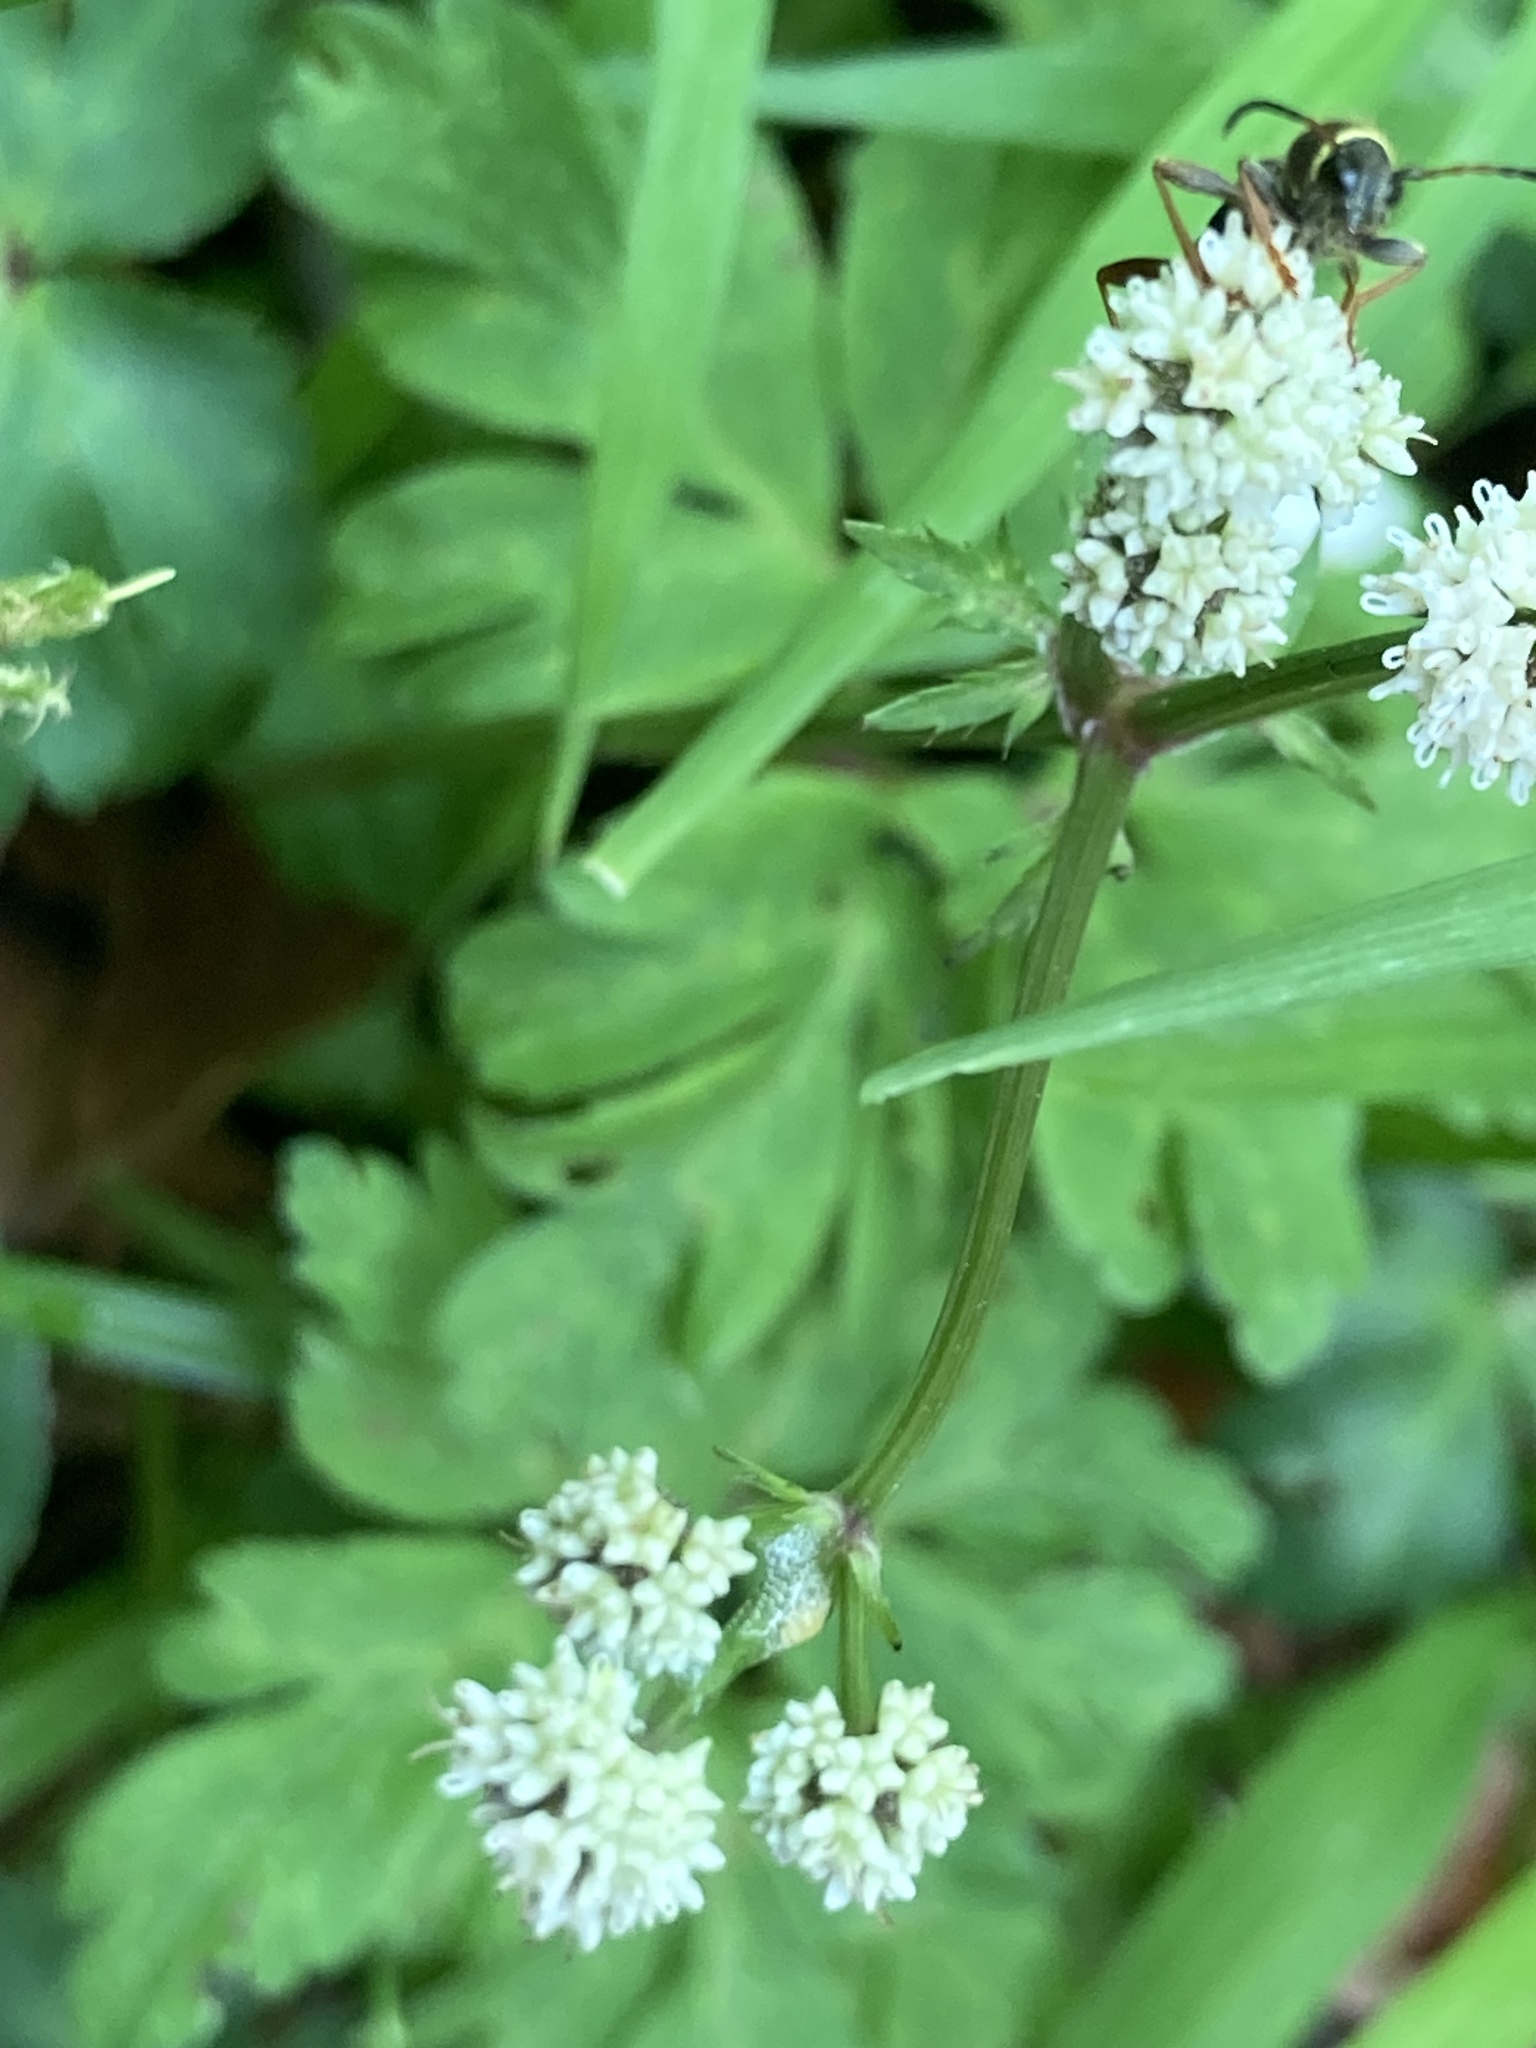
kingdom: Animalia
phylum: Arthropoda
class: Insecta
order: Coleoptera
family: Cerambycidae
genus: Clytus
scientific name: Clytus arietis
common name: Wasp beetle
